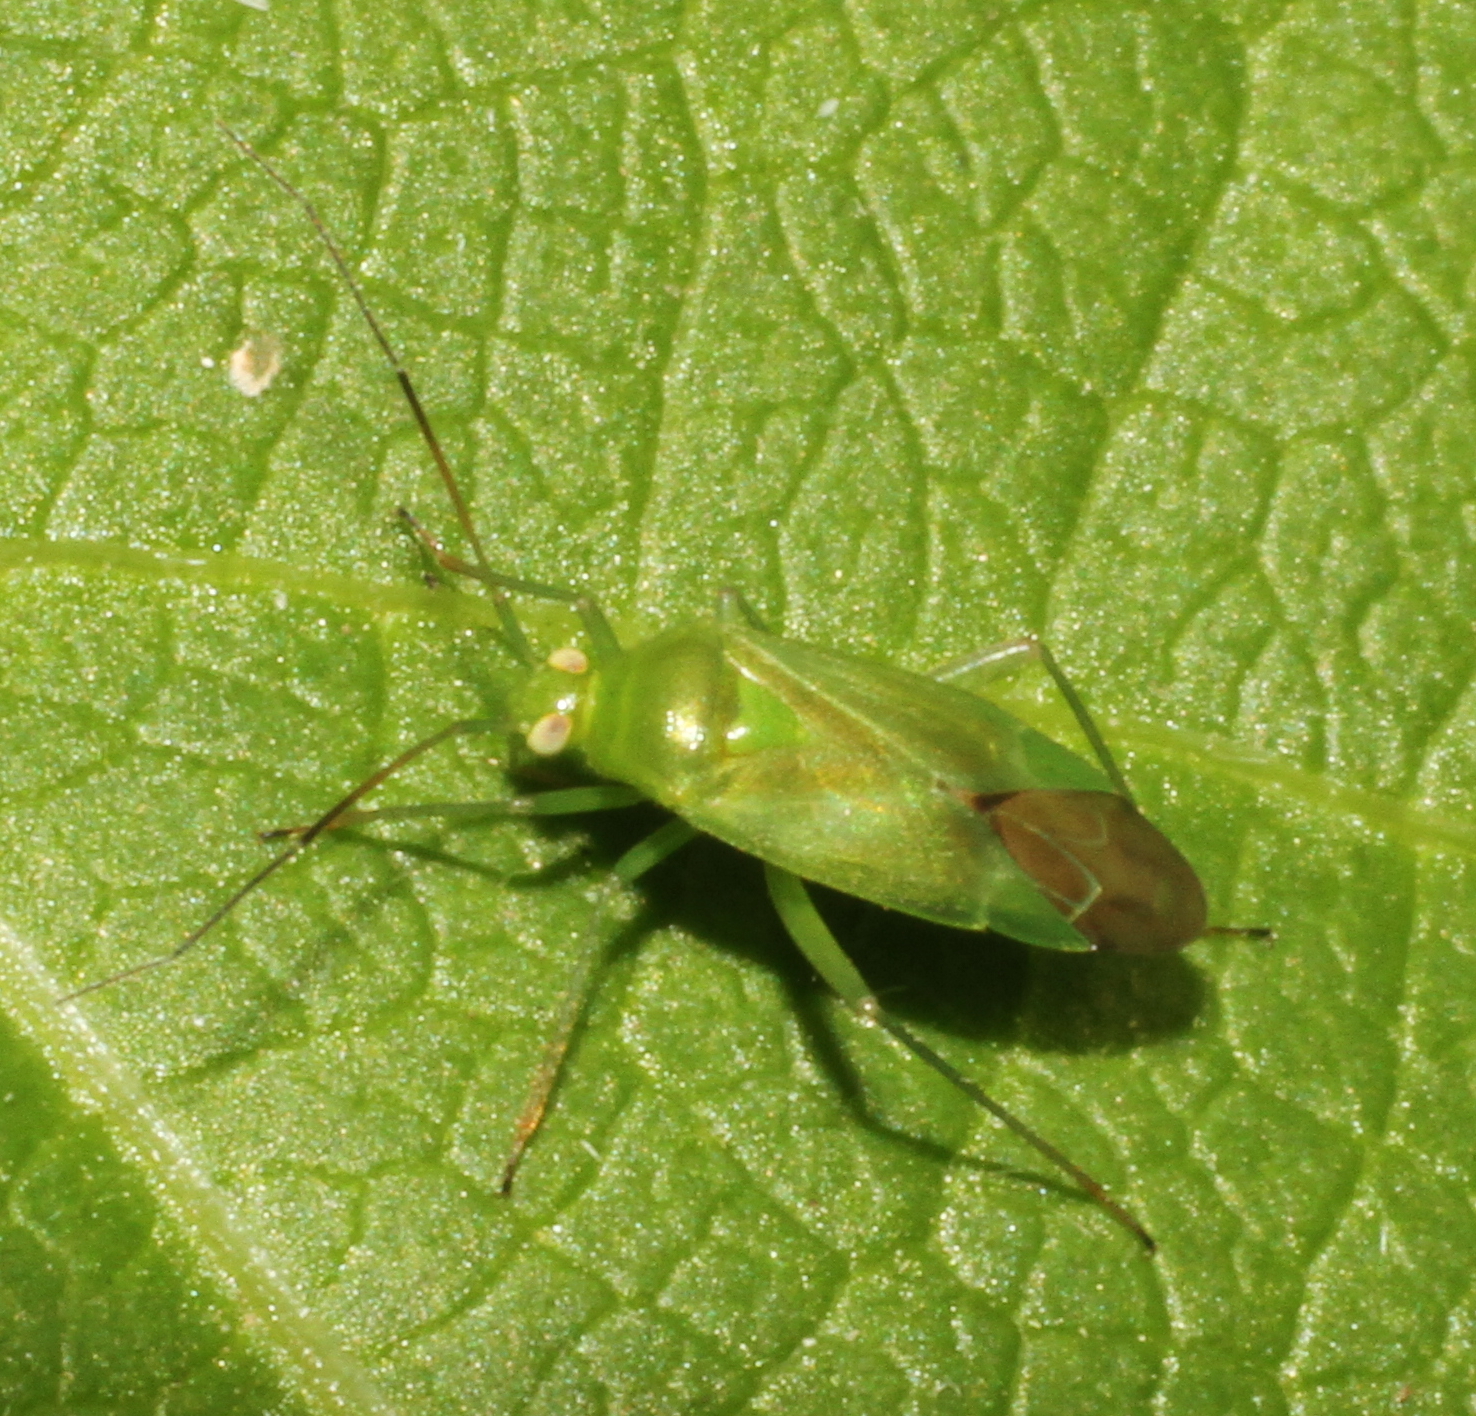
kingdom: Animalia
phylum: Arthropoda
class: Insecta
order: Hemiptera
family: Miridae
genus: Lygocoris
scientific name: Lygocoris pabulinus
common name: Common green capsid
